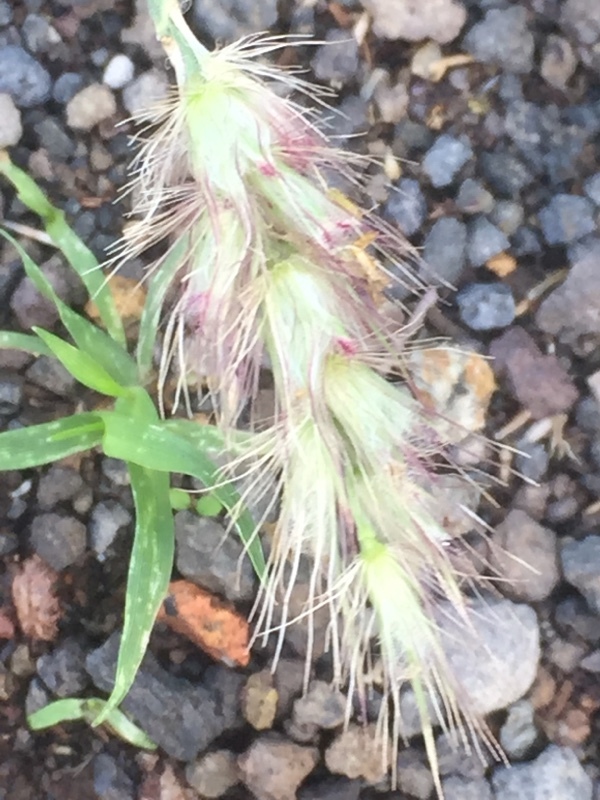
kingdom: Plantae
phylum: Tracheophyta
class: Liliopsida
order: Poales
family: Poaceae
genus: Cenchrus
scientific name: Cenchrus ciliaris
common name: Buffelgrass
